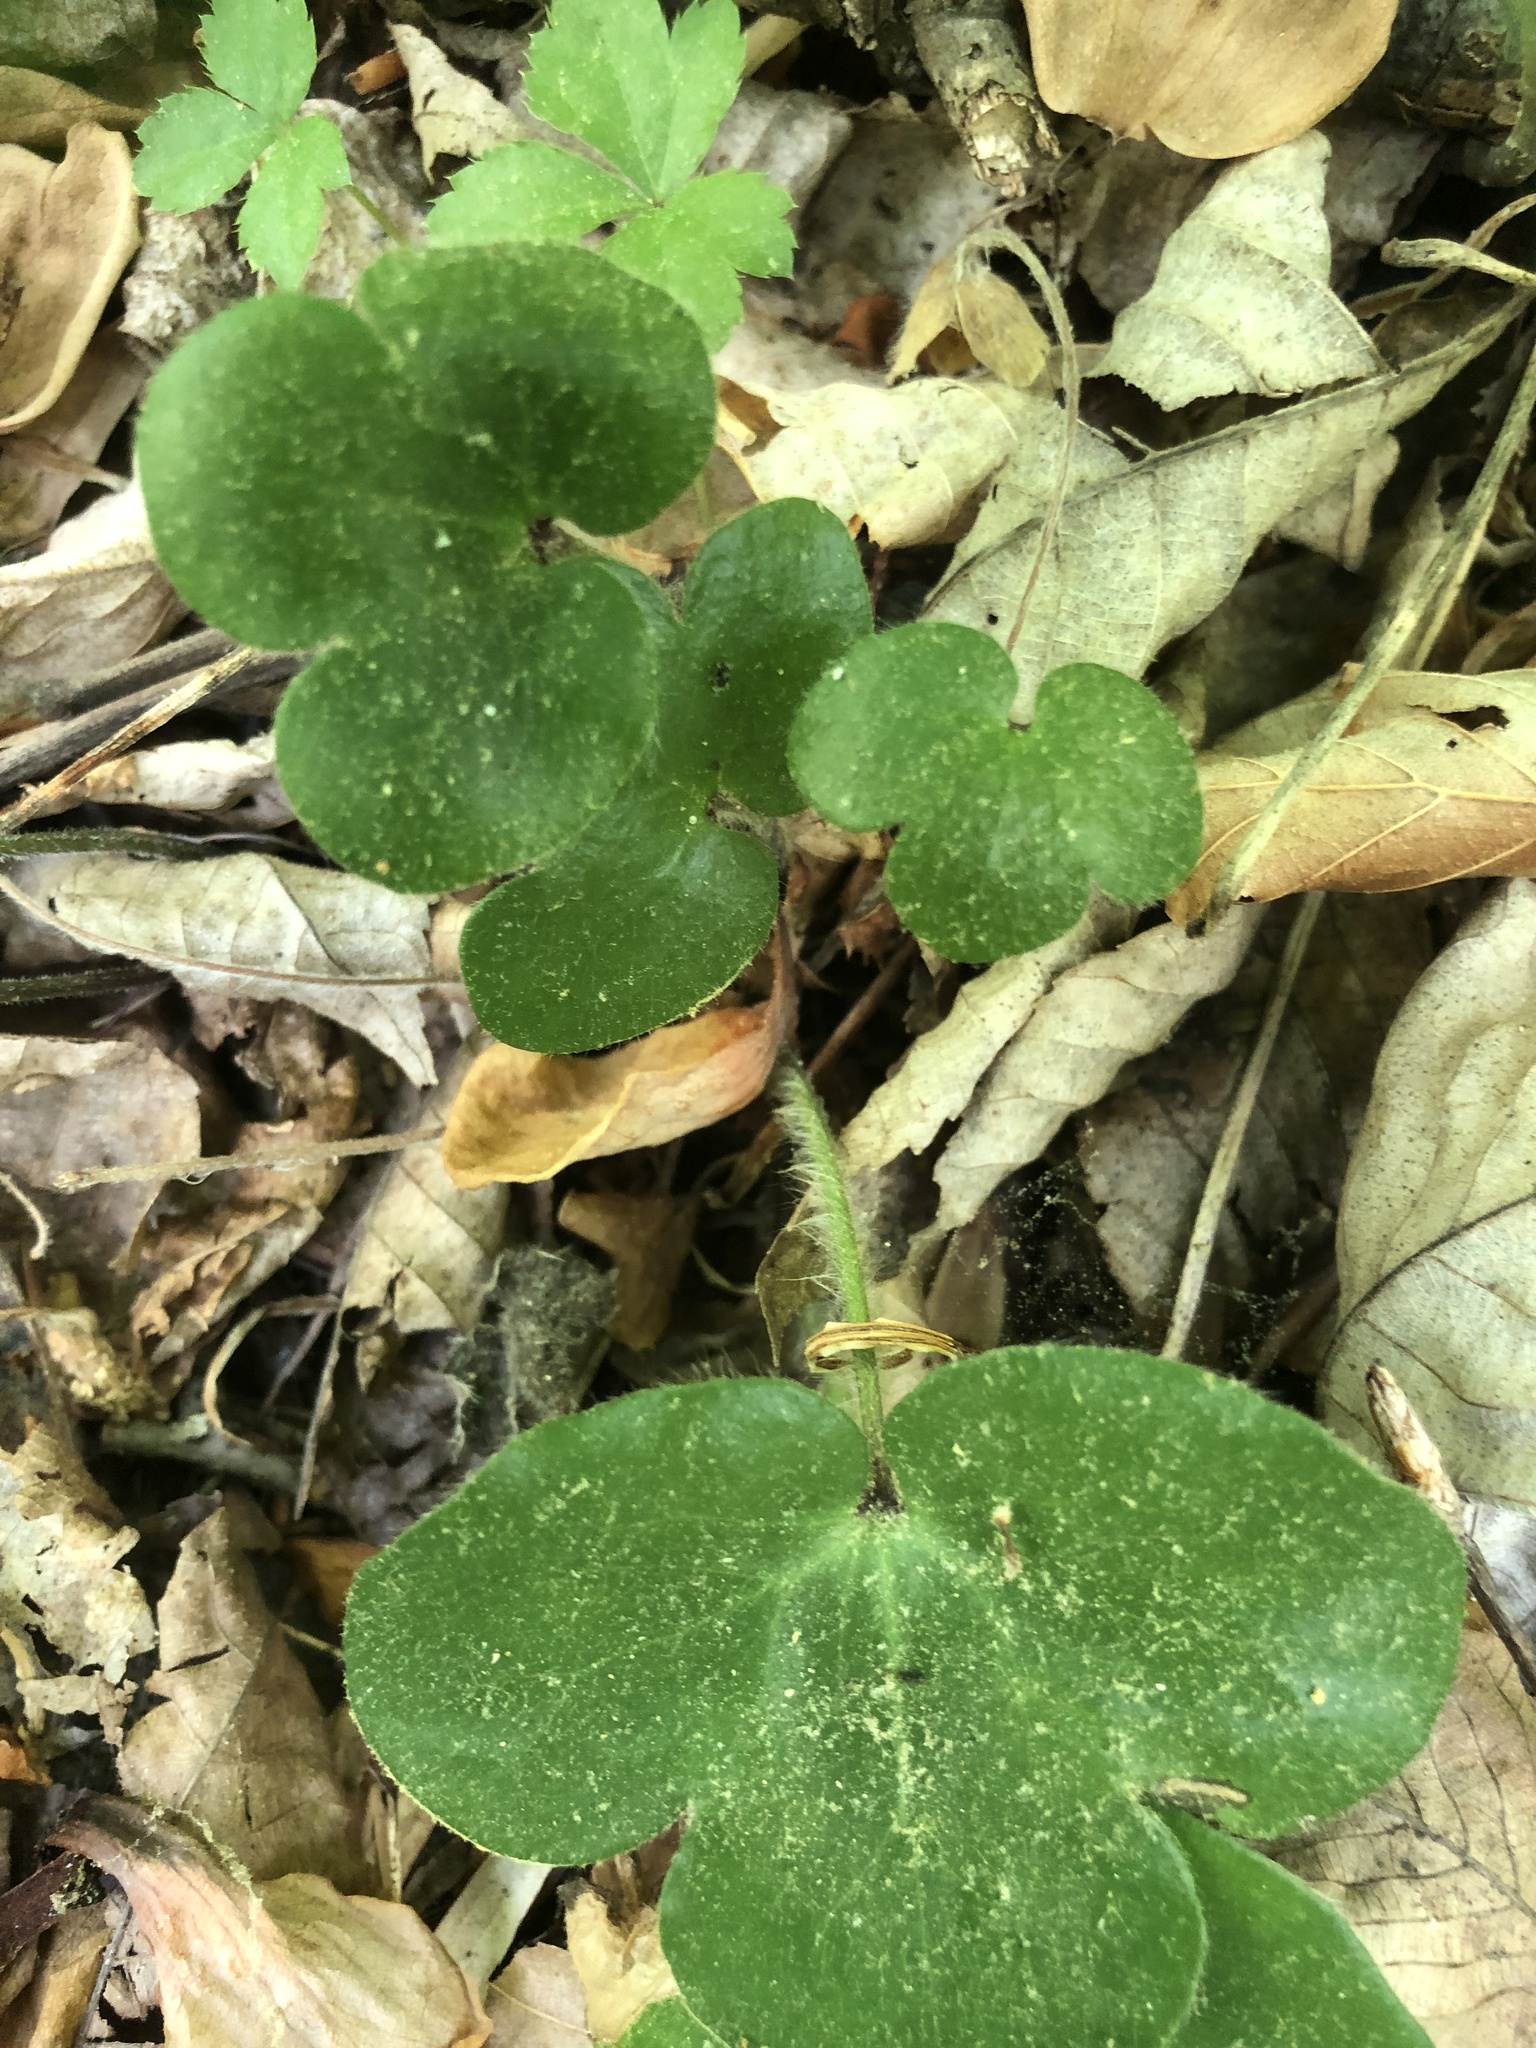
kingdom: Plantae
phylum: Tracheophyta
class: Magnoliopsida
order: Ranunculales
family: Ranunculaceae
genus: Hepatica
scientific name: Hepatica americana
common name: American hepatica
